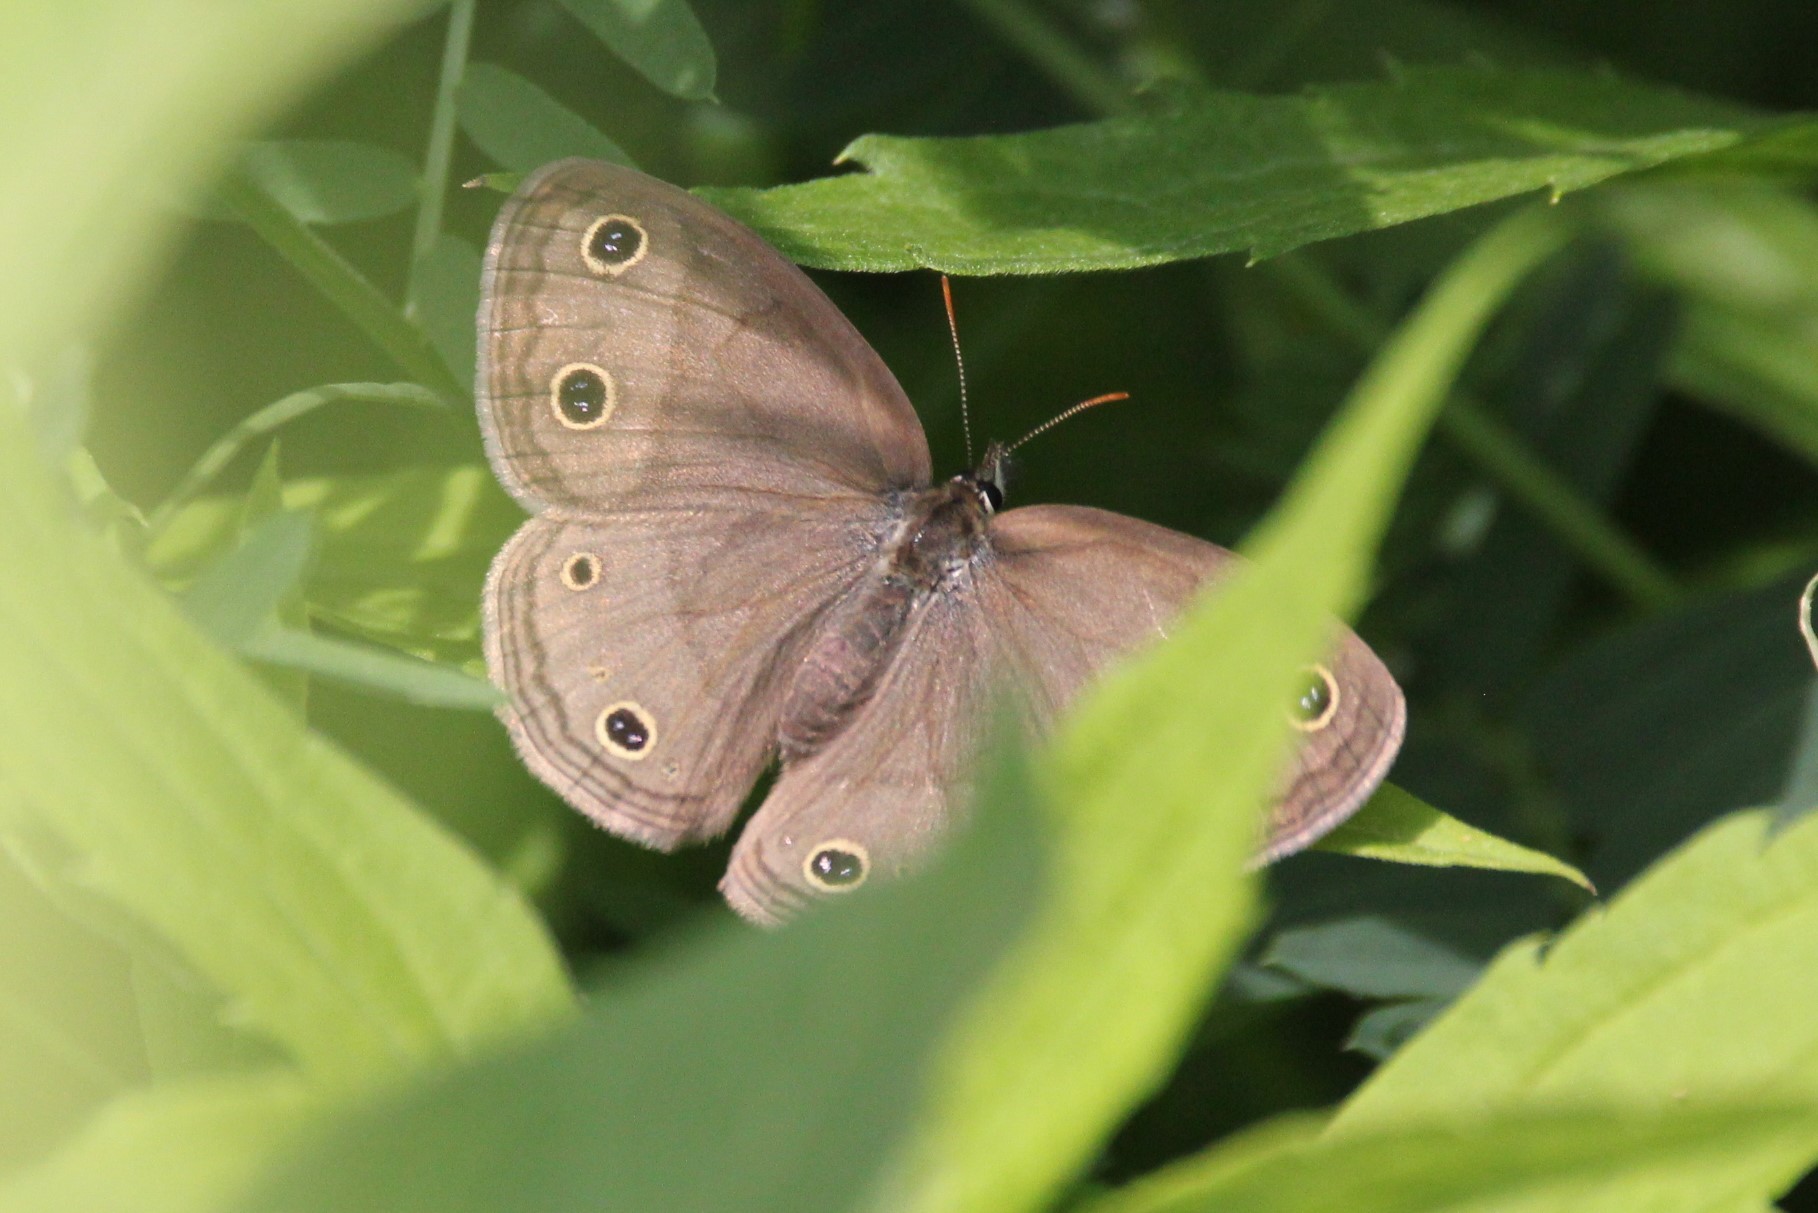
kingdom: Animalia
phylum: Arthropoda
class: Insecta
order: Lepidoptera
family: Nymphalidae
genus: Euptychia
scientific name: Euptychia cymela
